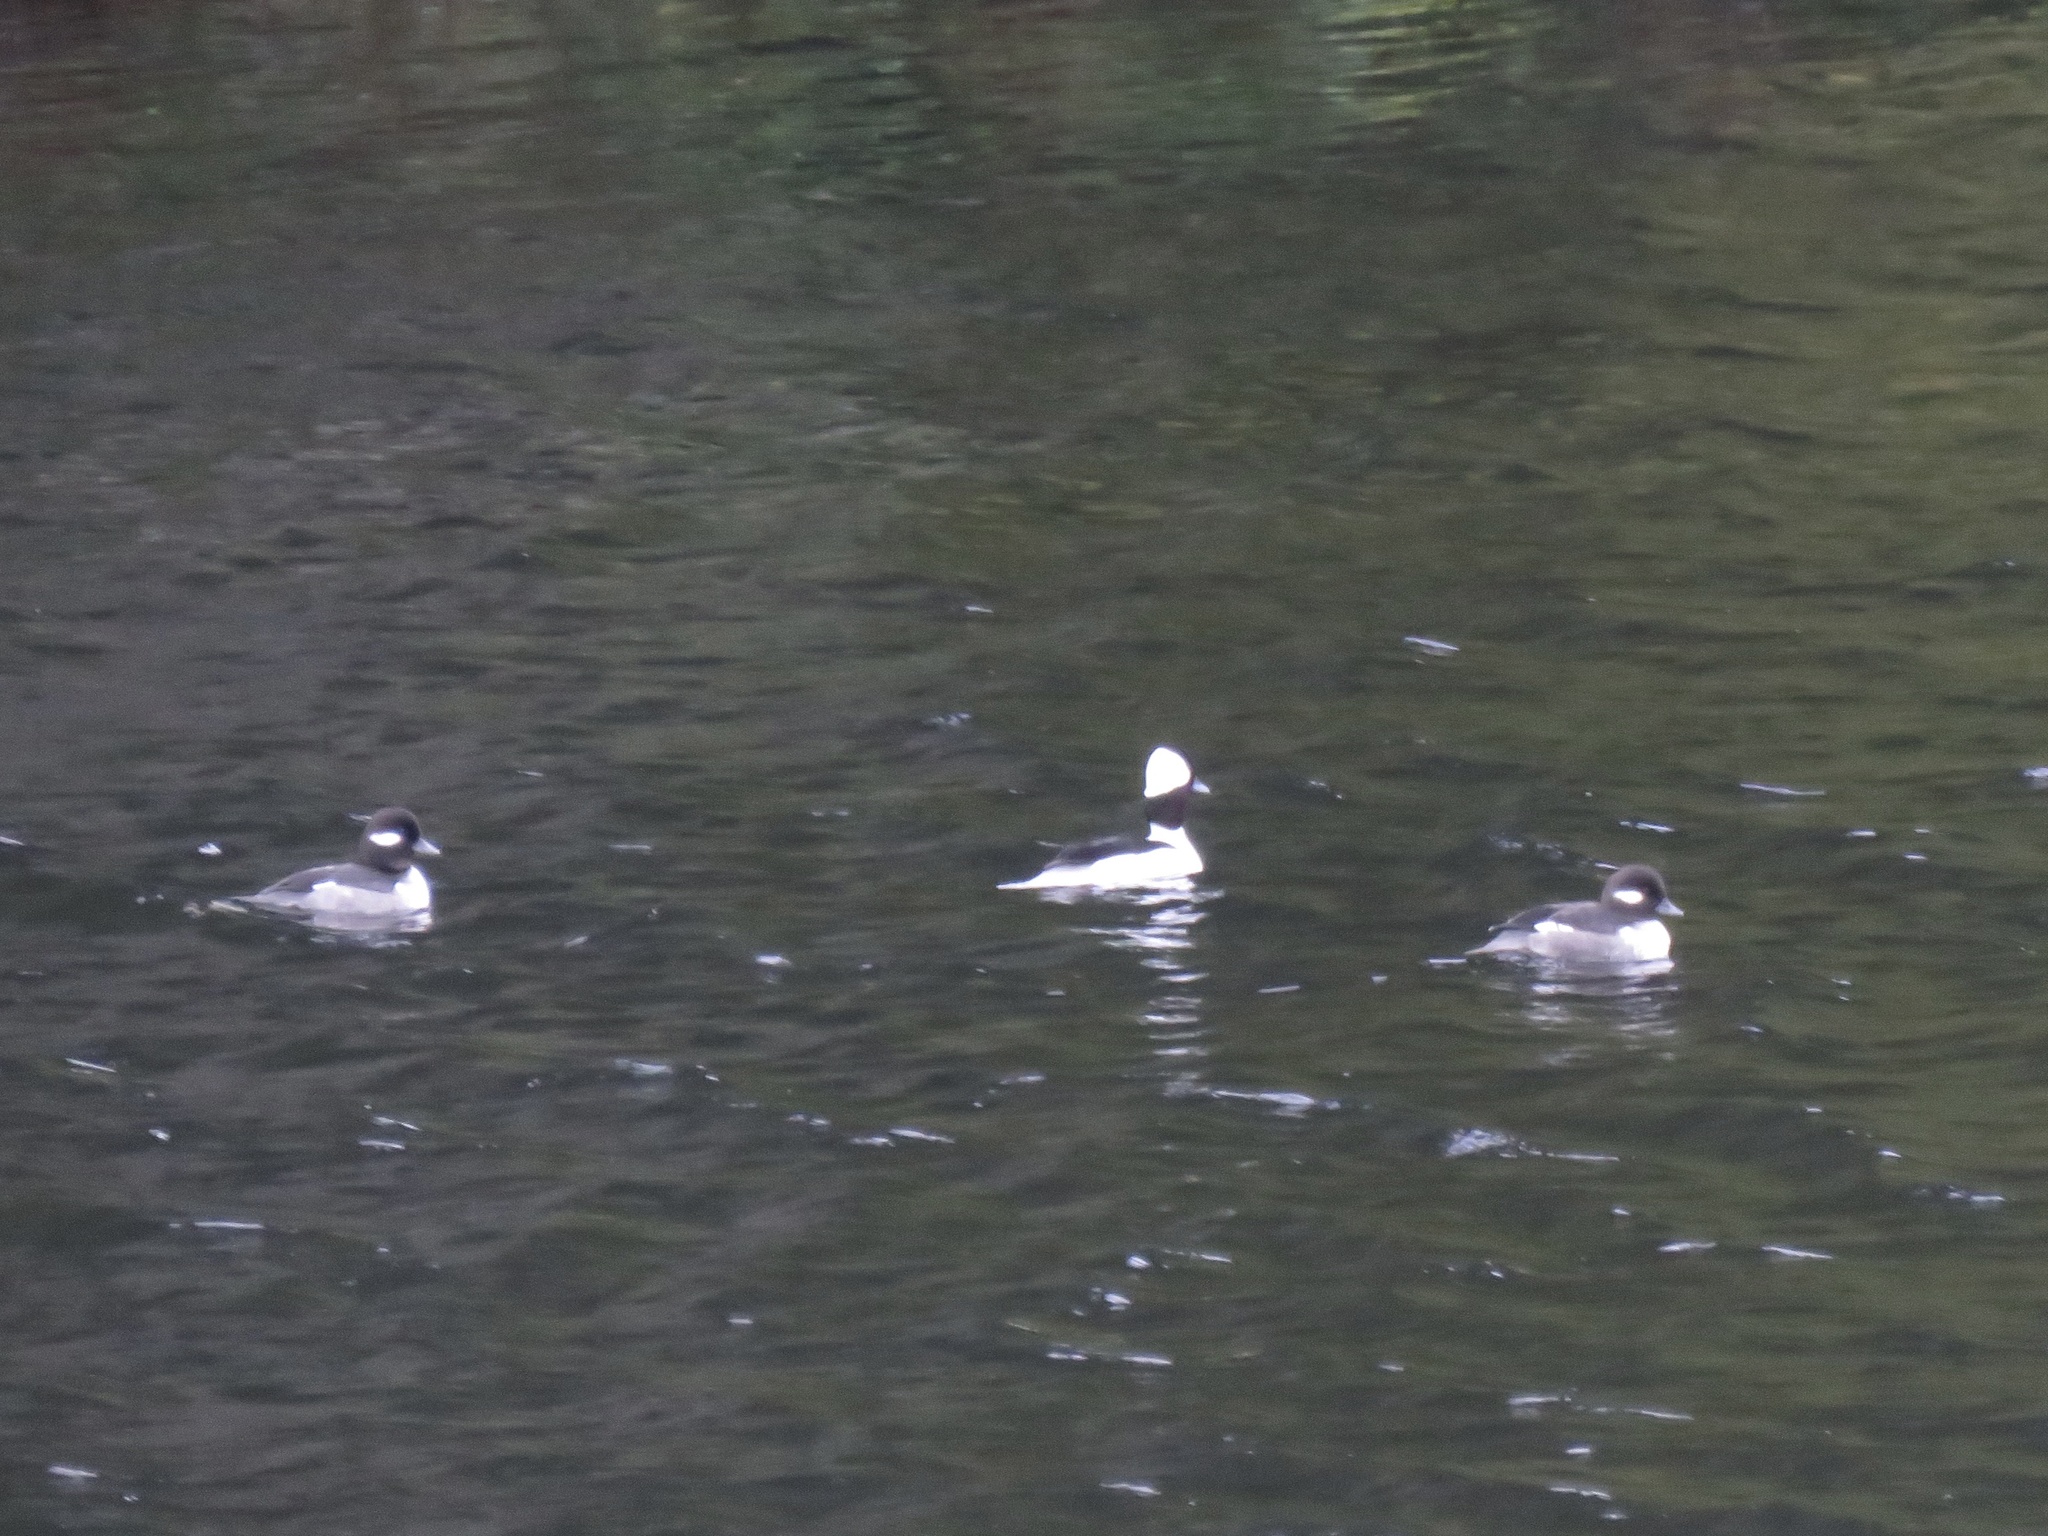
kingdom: Animalia
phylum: Chordata
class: Aves
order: Anseriformes
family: Anatidae
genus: Bucephala
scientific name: Bucephala albeola
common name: Bufflehead
